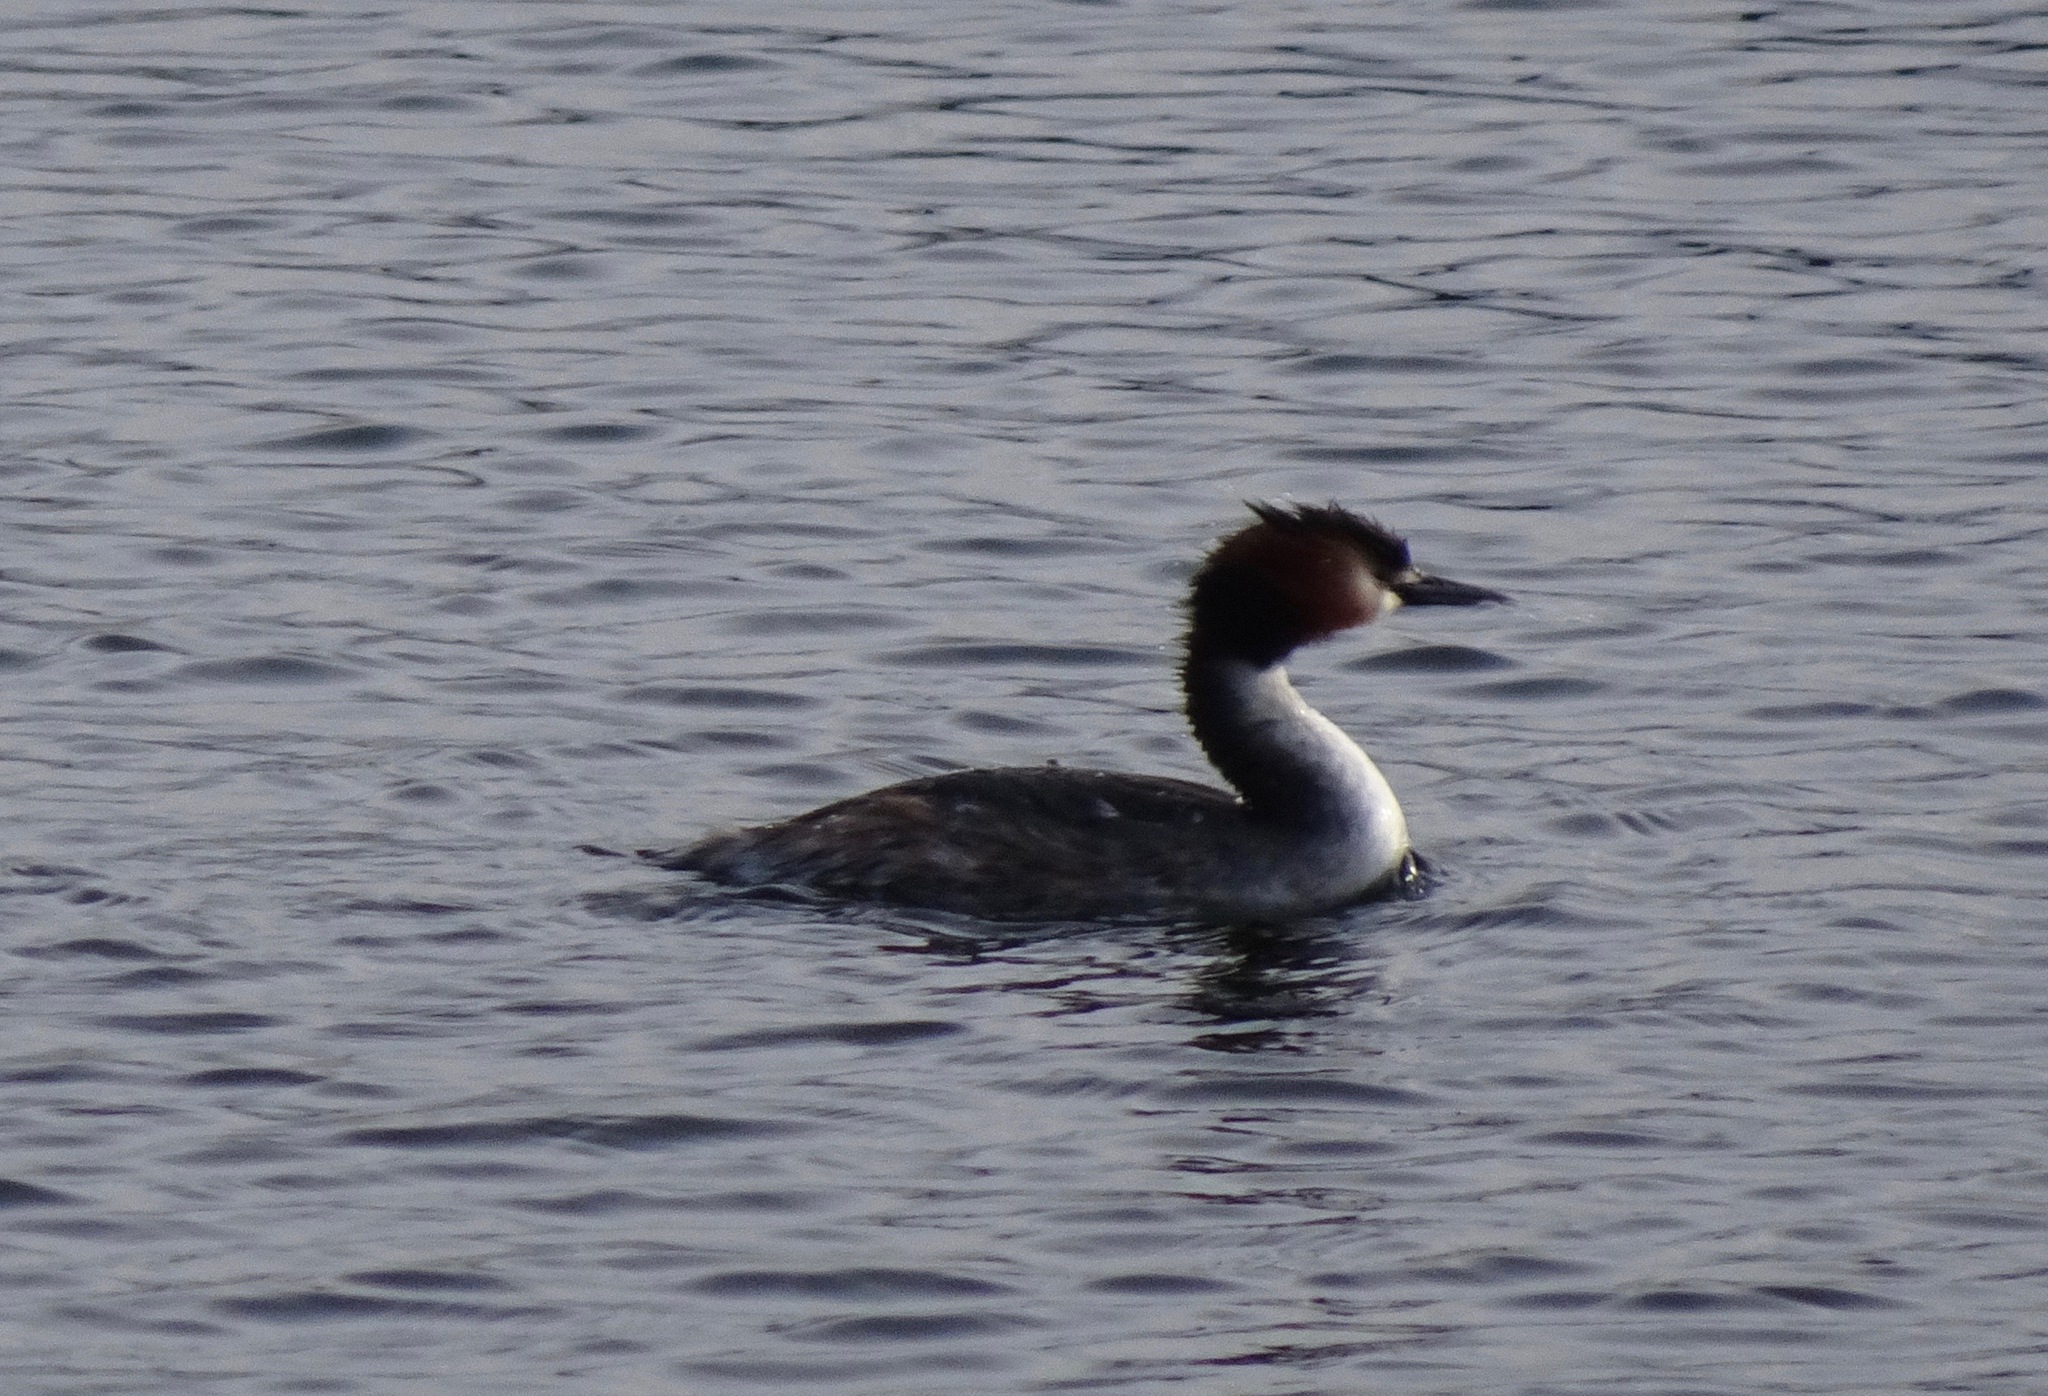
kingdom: Animalia
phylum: Chordata
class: Aves
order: Podicipediformes
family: Podicipedidae
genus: Podiceps
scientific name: Podiceps cristatus
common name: Great crested grebe
